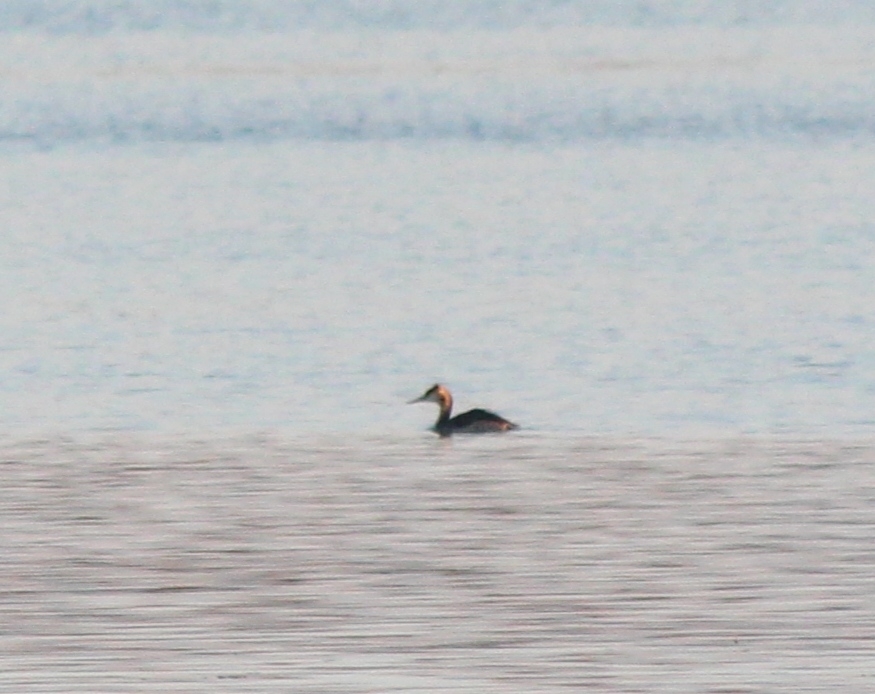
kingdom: Animalia
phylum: Chordata
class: Aves
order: Podicipediformes
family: Podicipedidae
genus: Podiceps
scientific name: Podiceps cristatus
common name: Great crested grebe
